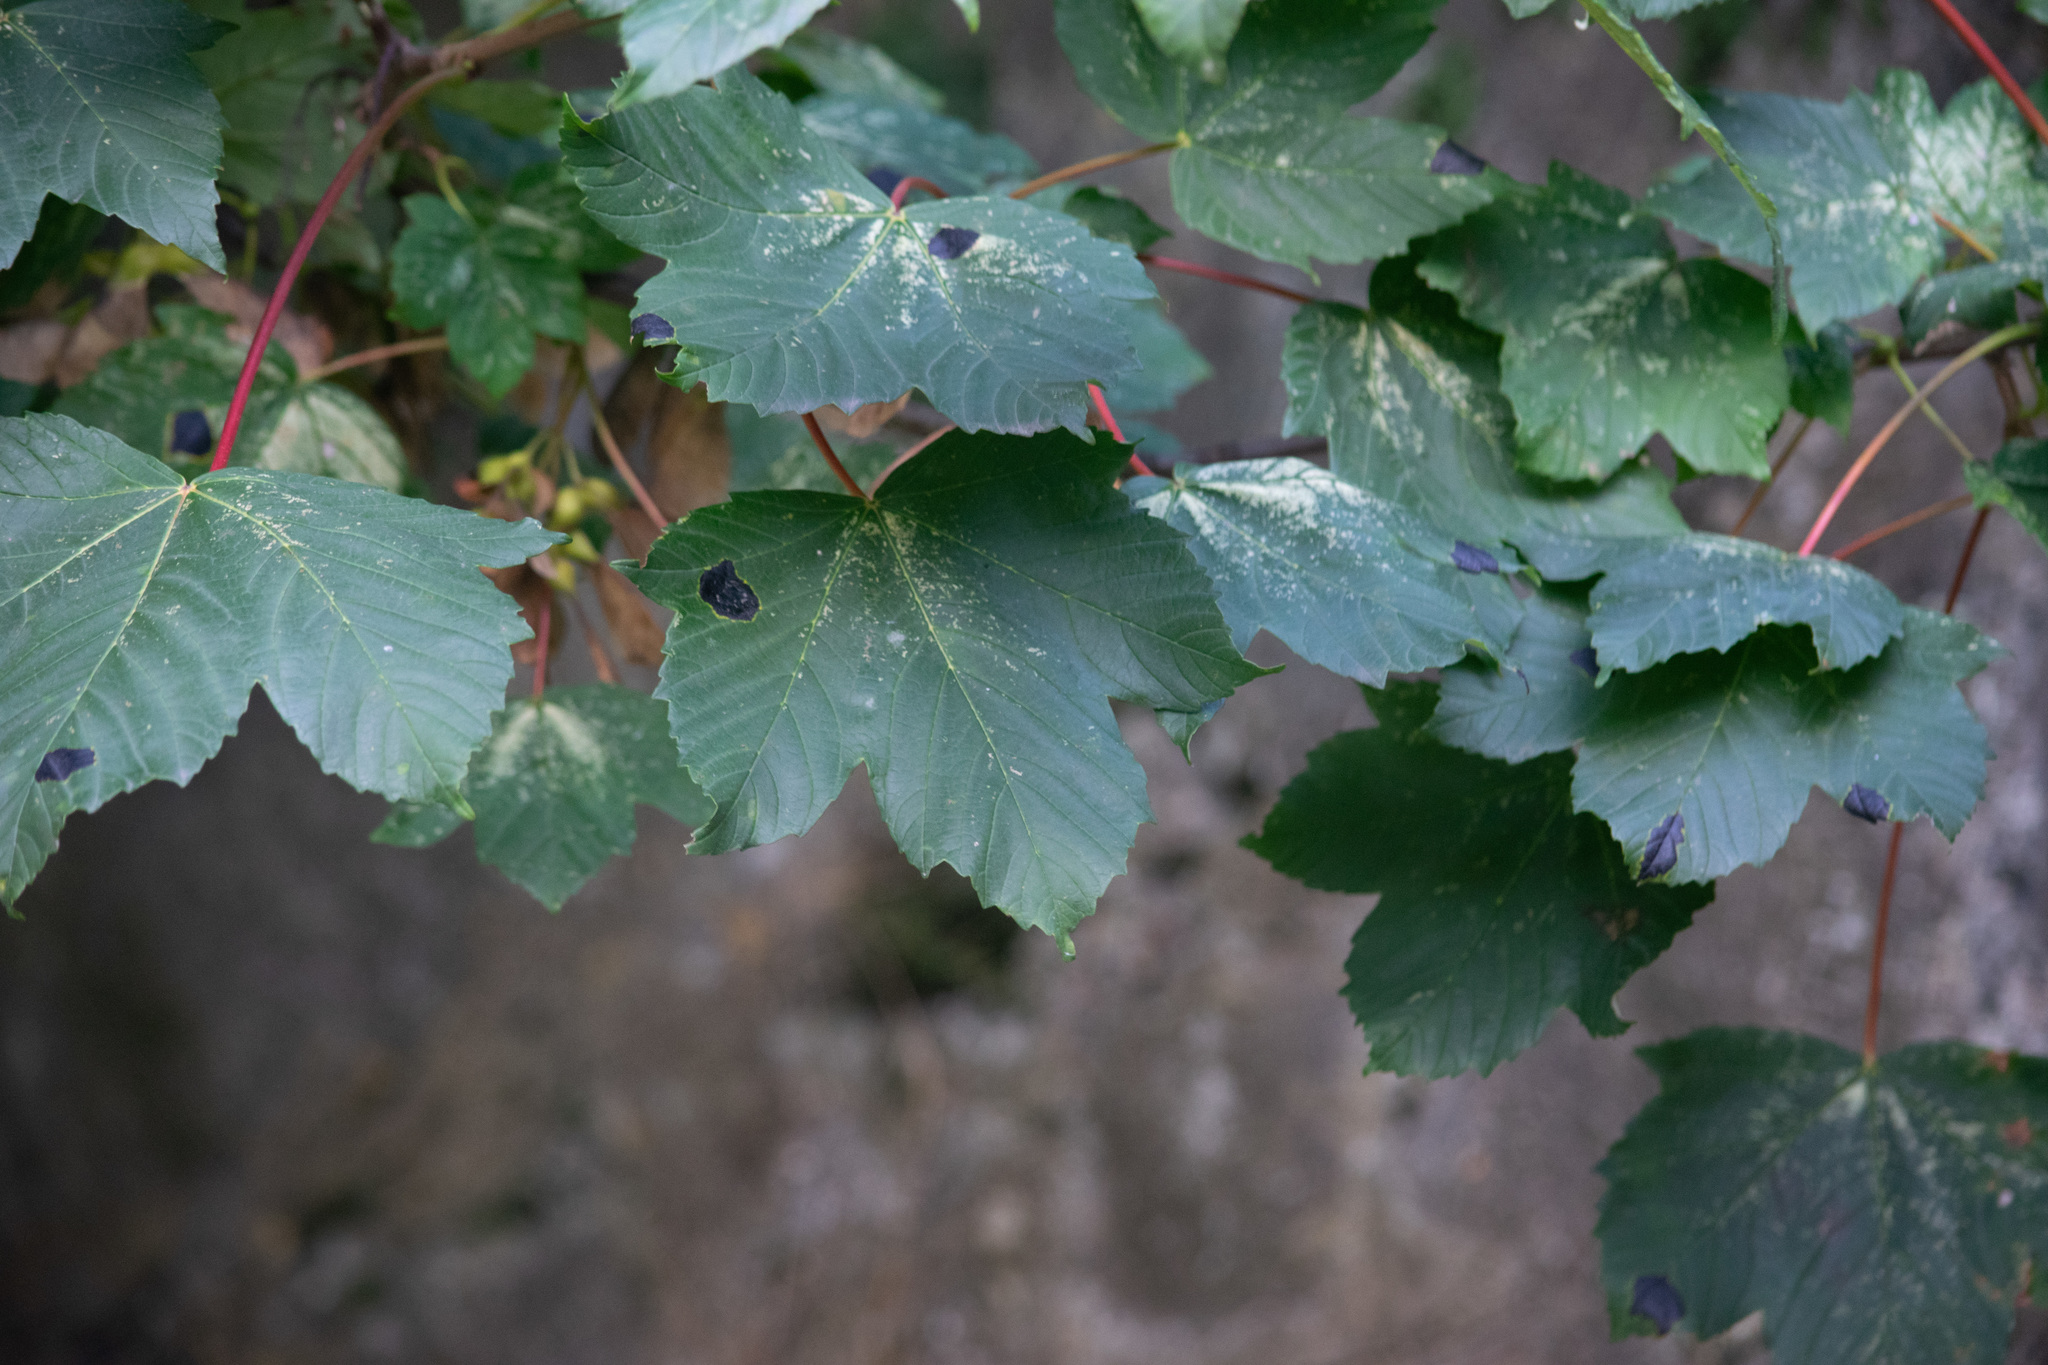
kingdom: Plantae
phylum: Tracheophyta
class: Magnoliopsida
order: Sapindales
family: Sapindaceae
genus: Acer
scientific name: Acer pseudoplatanus
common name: Sycamore
